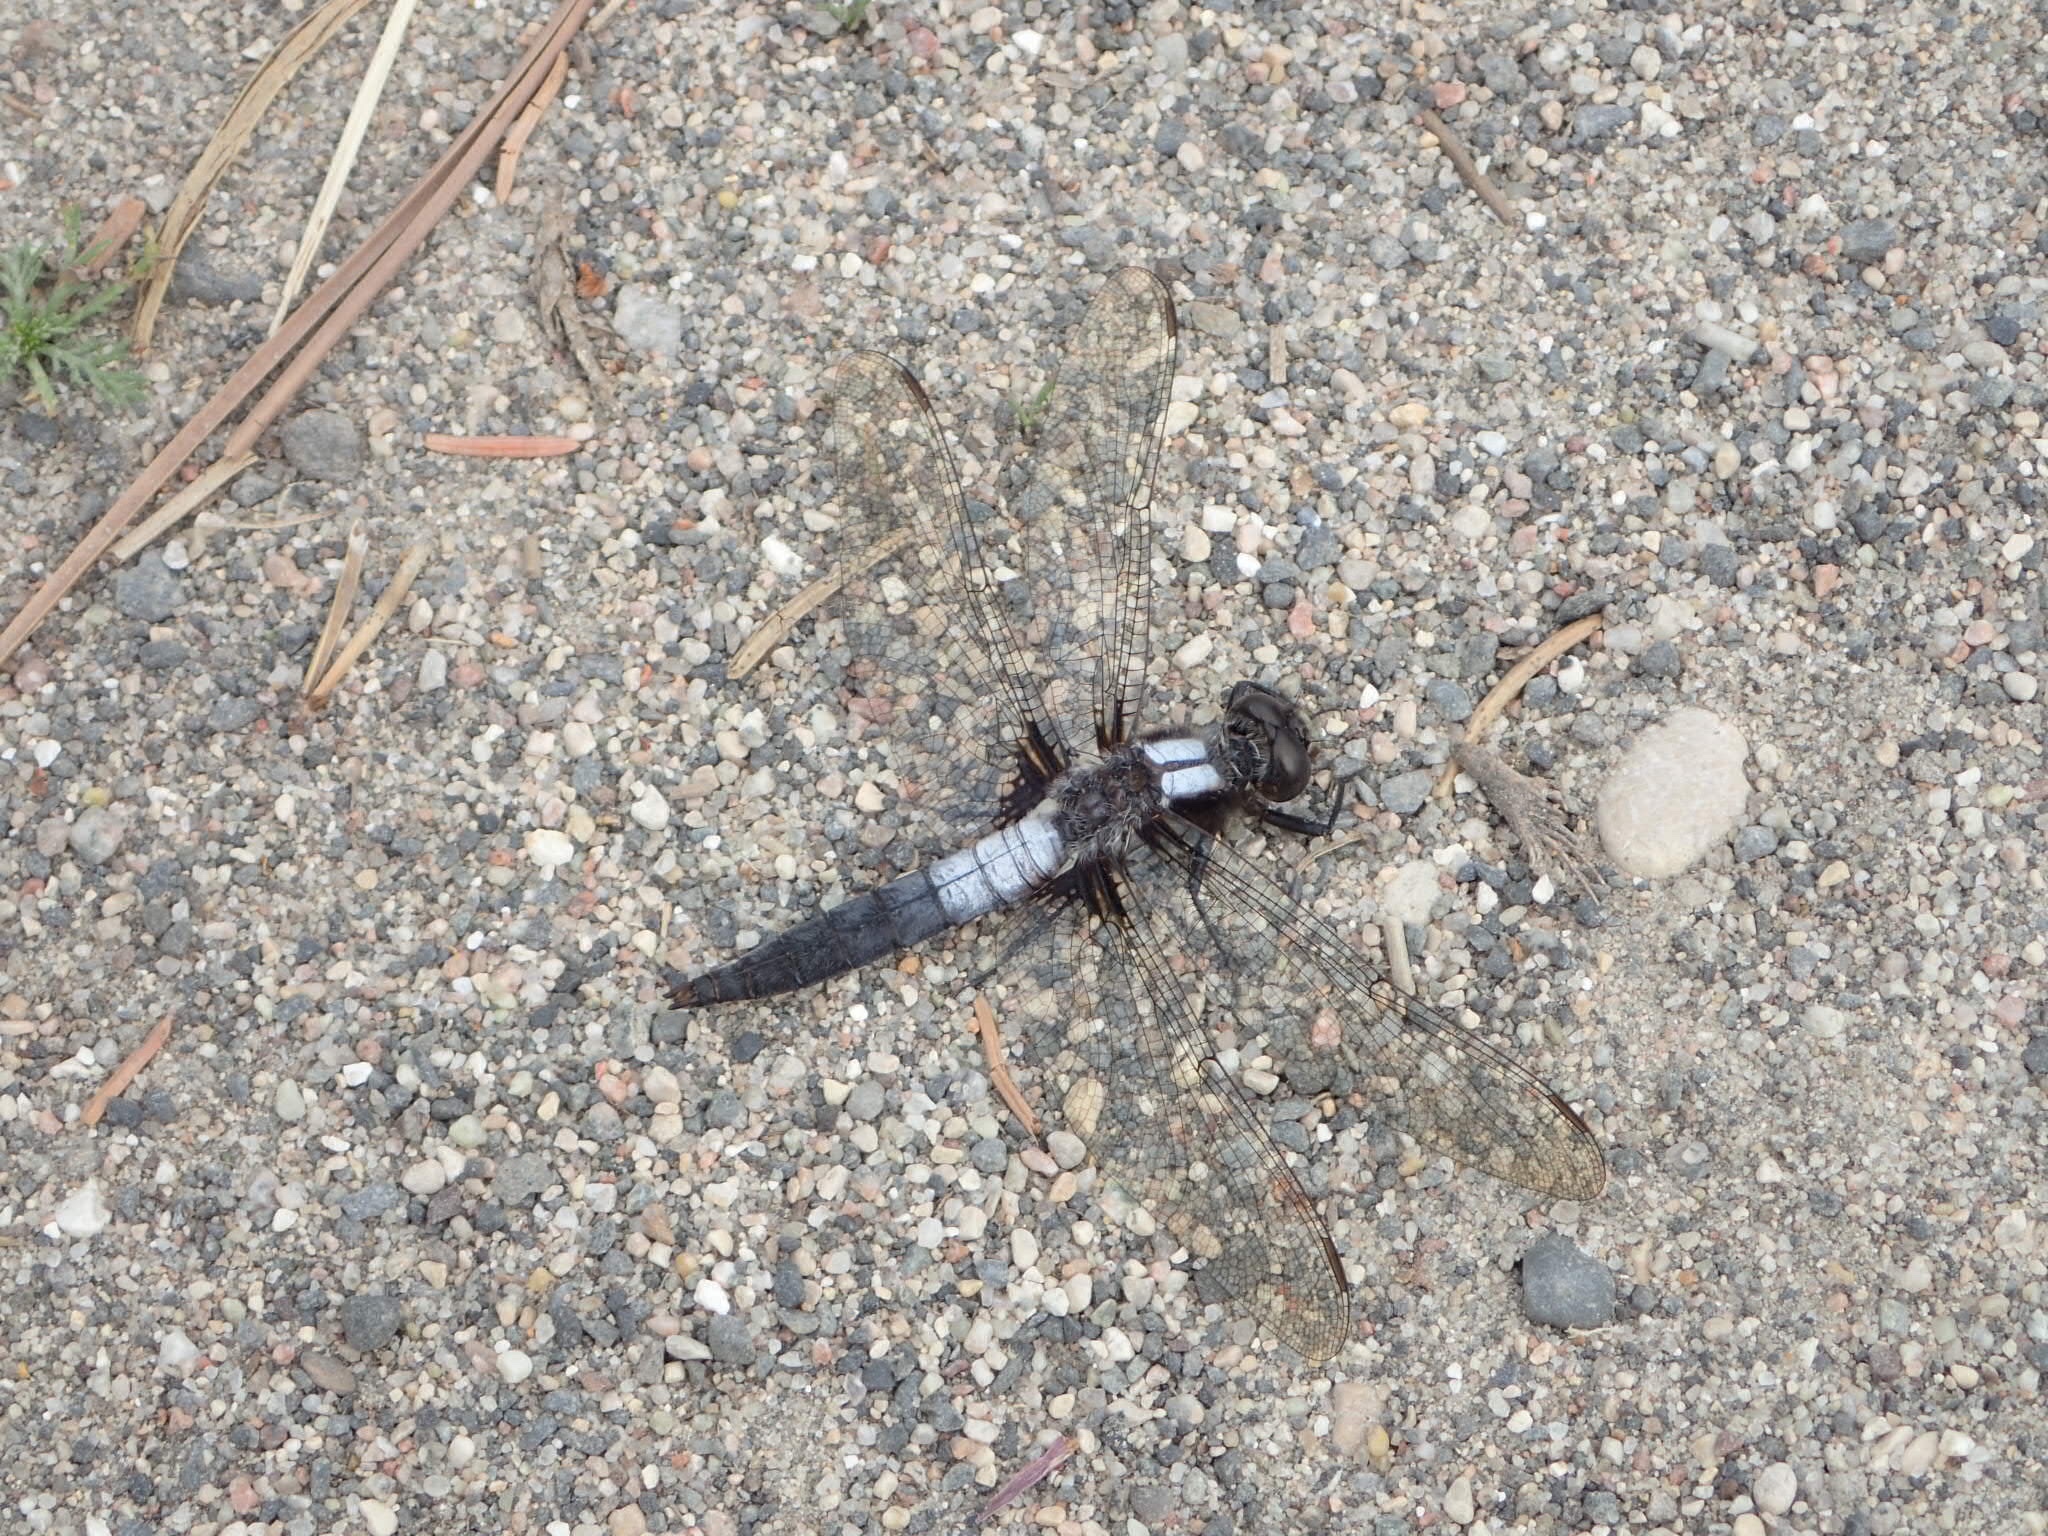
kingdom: Animalia
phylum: Arthropoda
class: Insecta
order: Odonata
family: Libellulidae
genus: Ladona
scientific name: Ladona julia
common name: Chalk-fronted corporal
